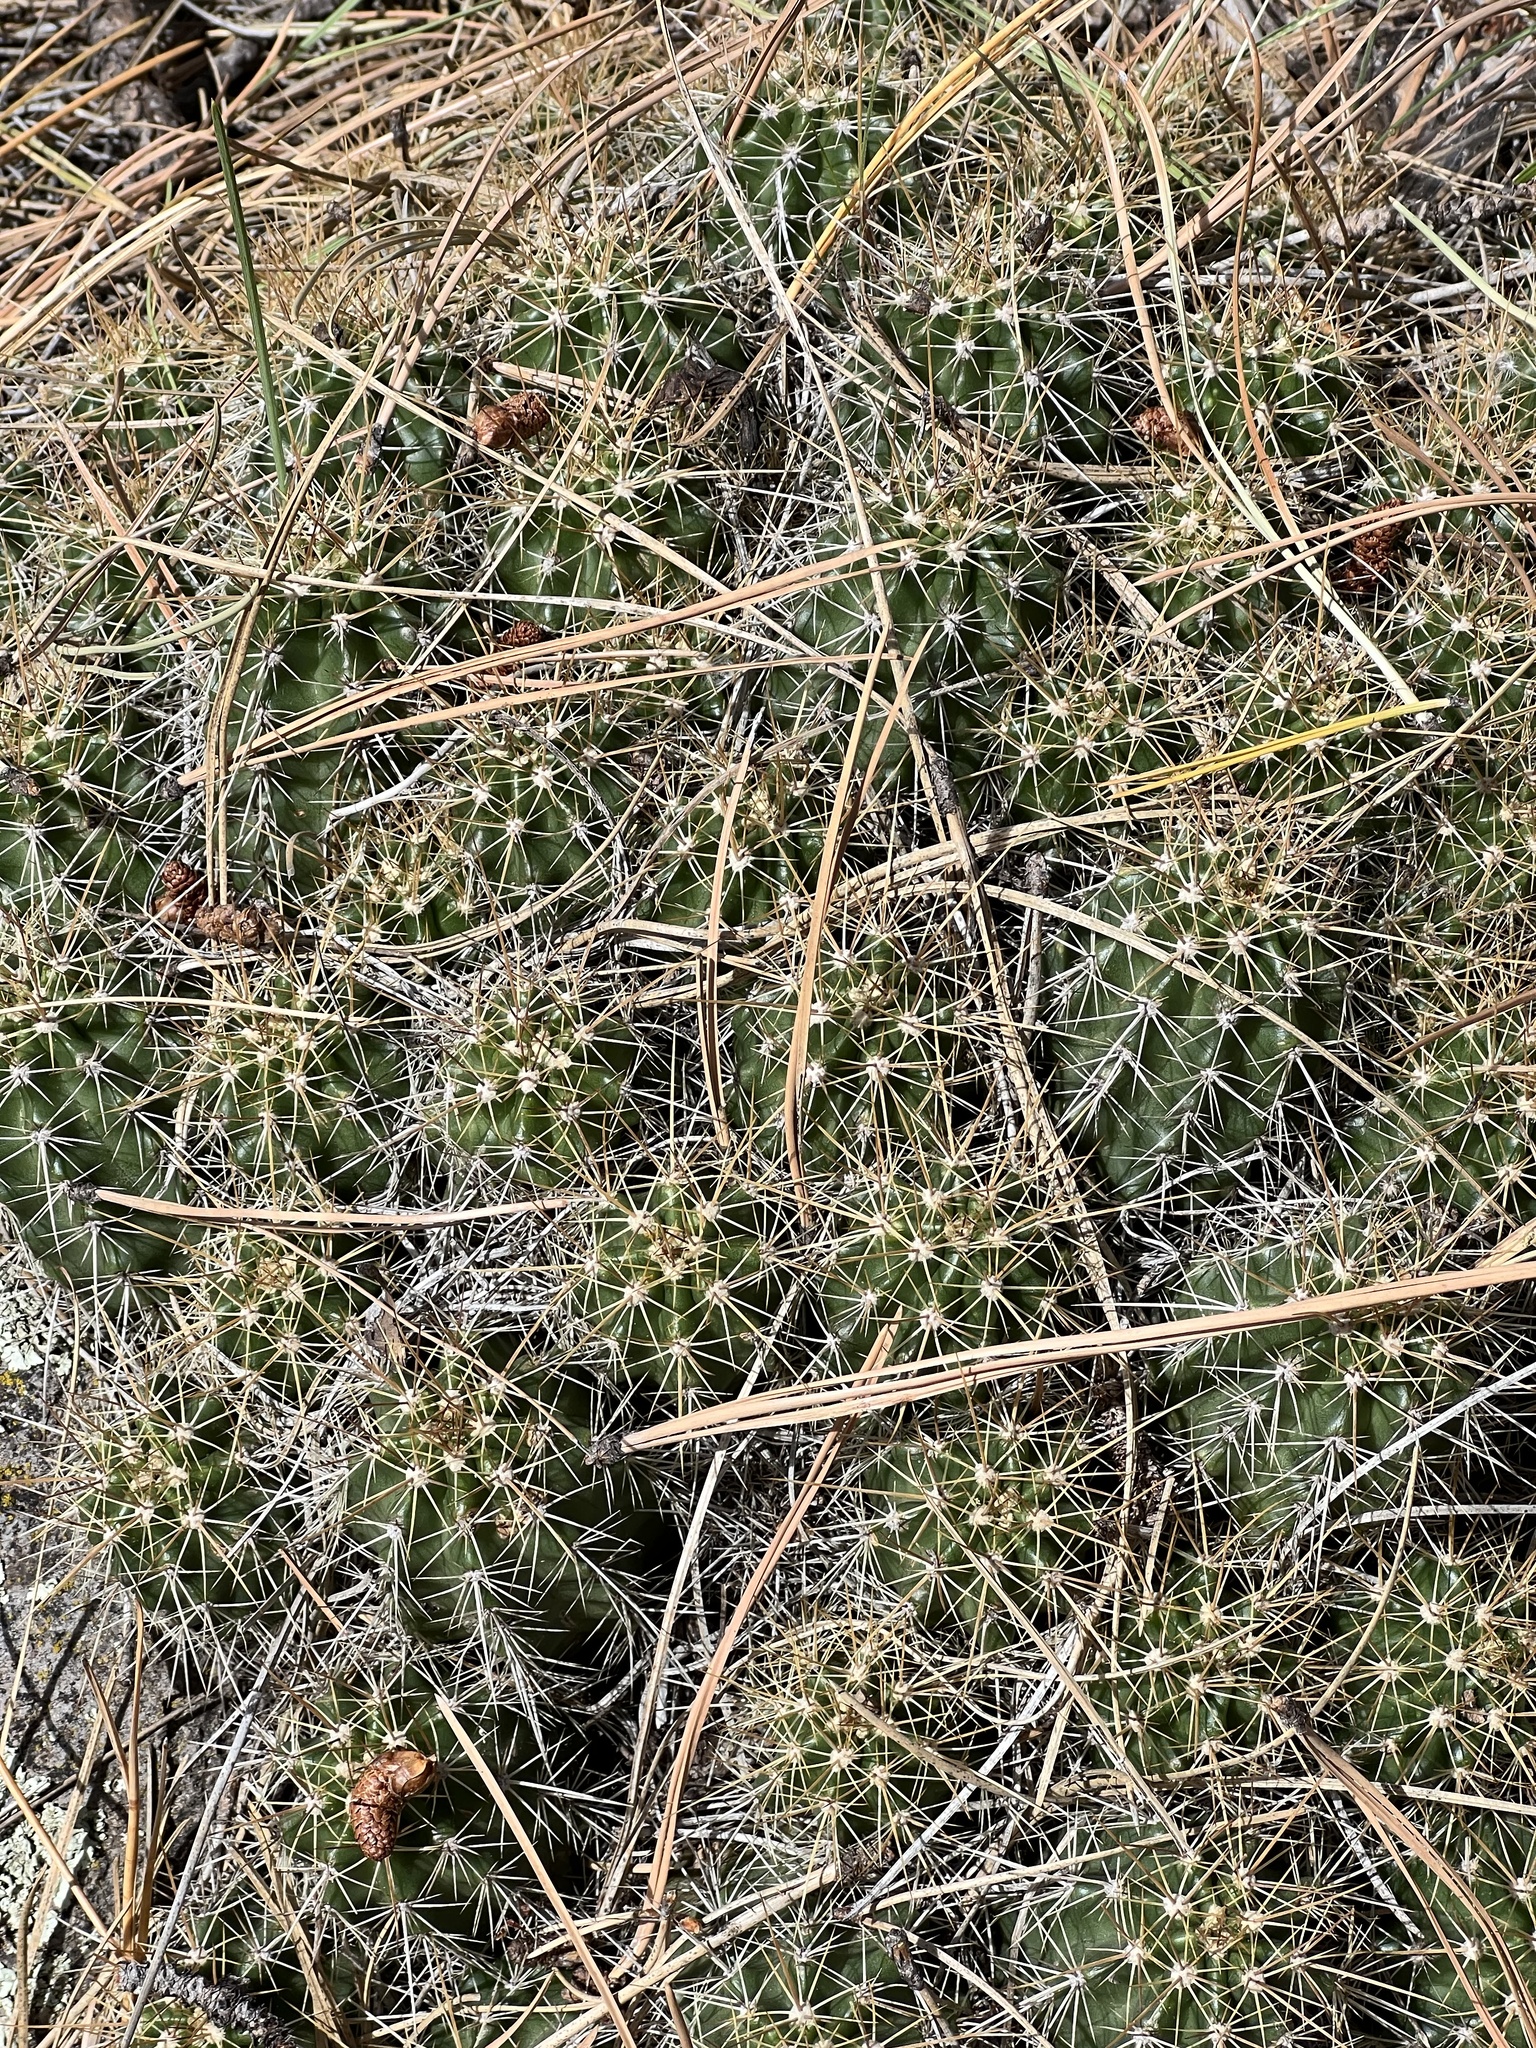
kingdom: Plantae
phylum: Tracheophyta
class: Magnoliopsida
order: Caryophyllales
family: Cactaceae
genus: Echinocereus
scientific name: Echinocereus bakeri
